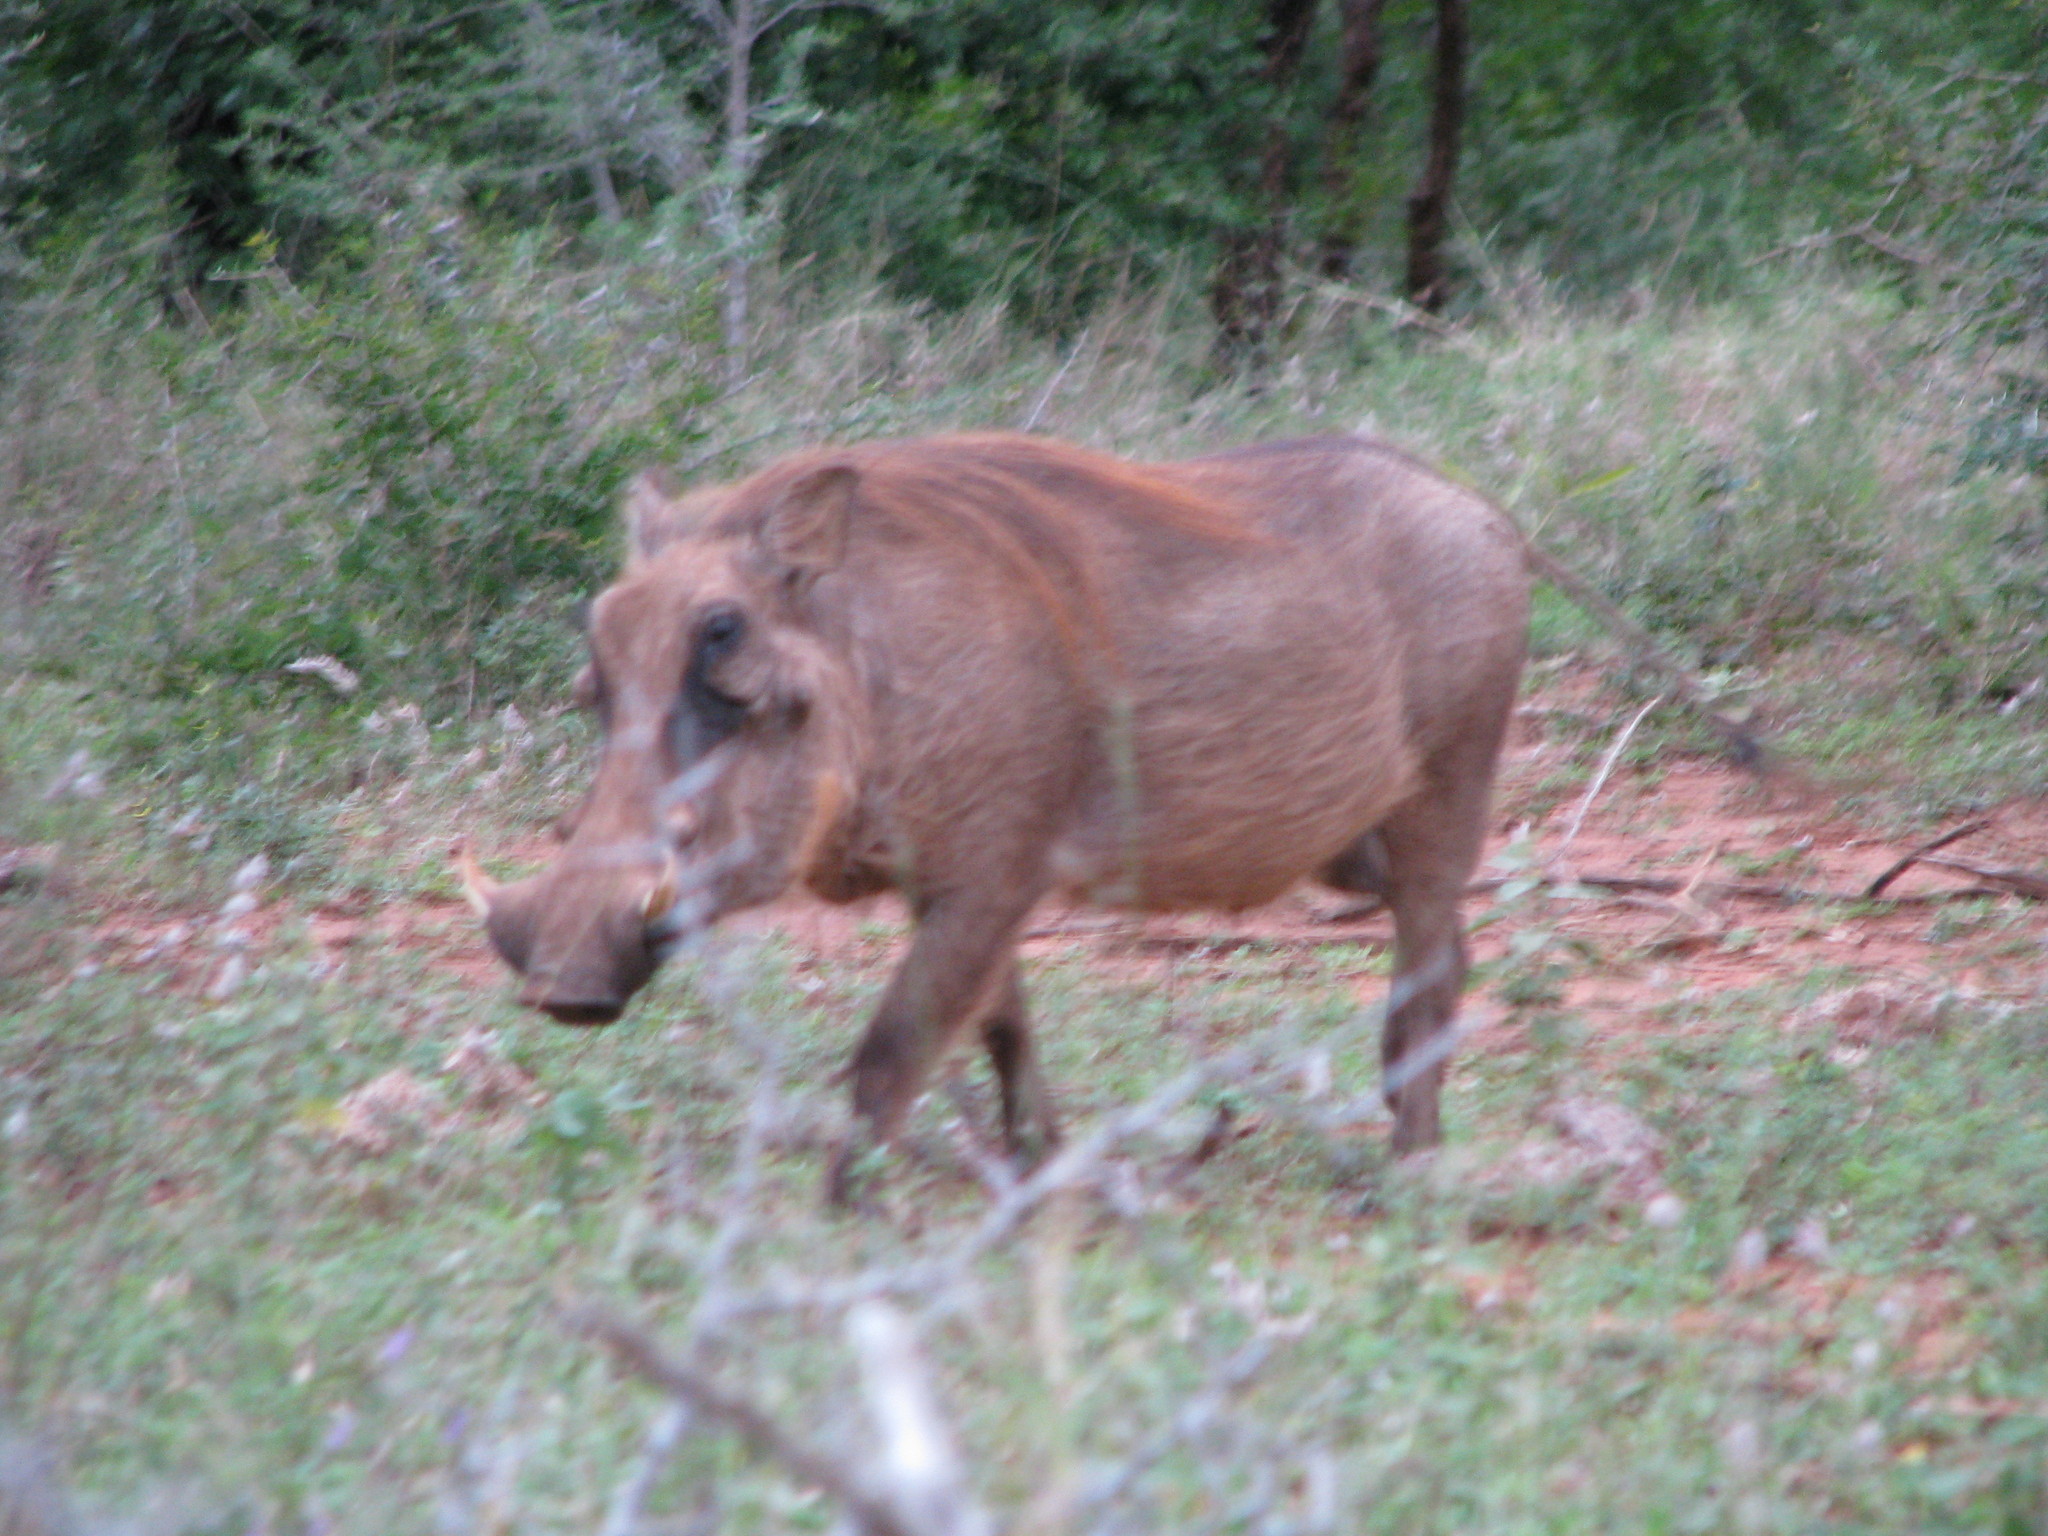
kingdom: Animalia
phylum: Chordata
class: Mammalia
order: Artiodactyla
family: Suidae
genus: Phacochoerus
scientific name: Phacochoerus africanus
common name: Common warthog
